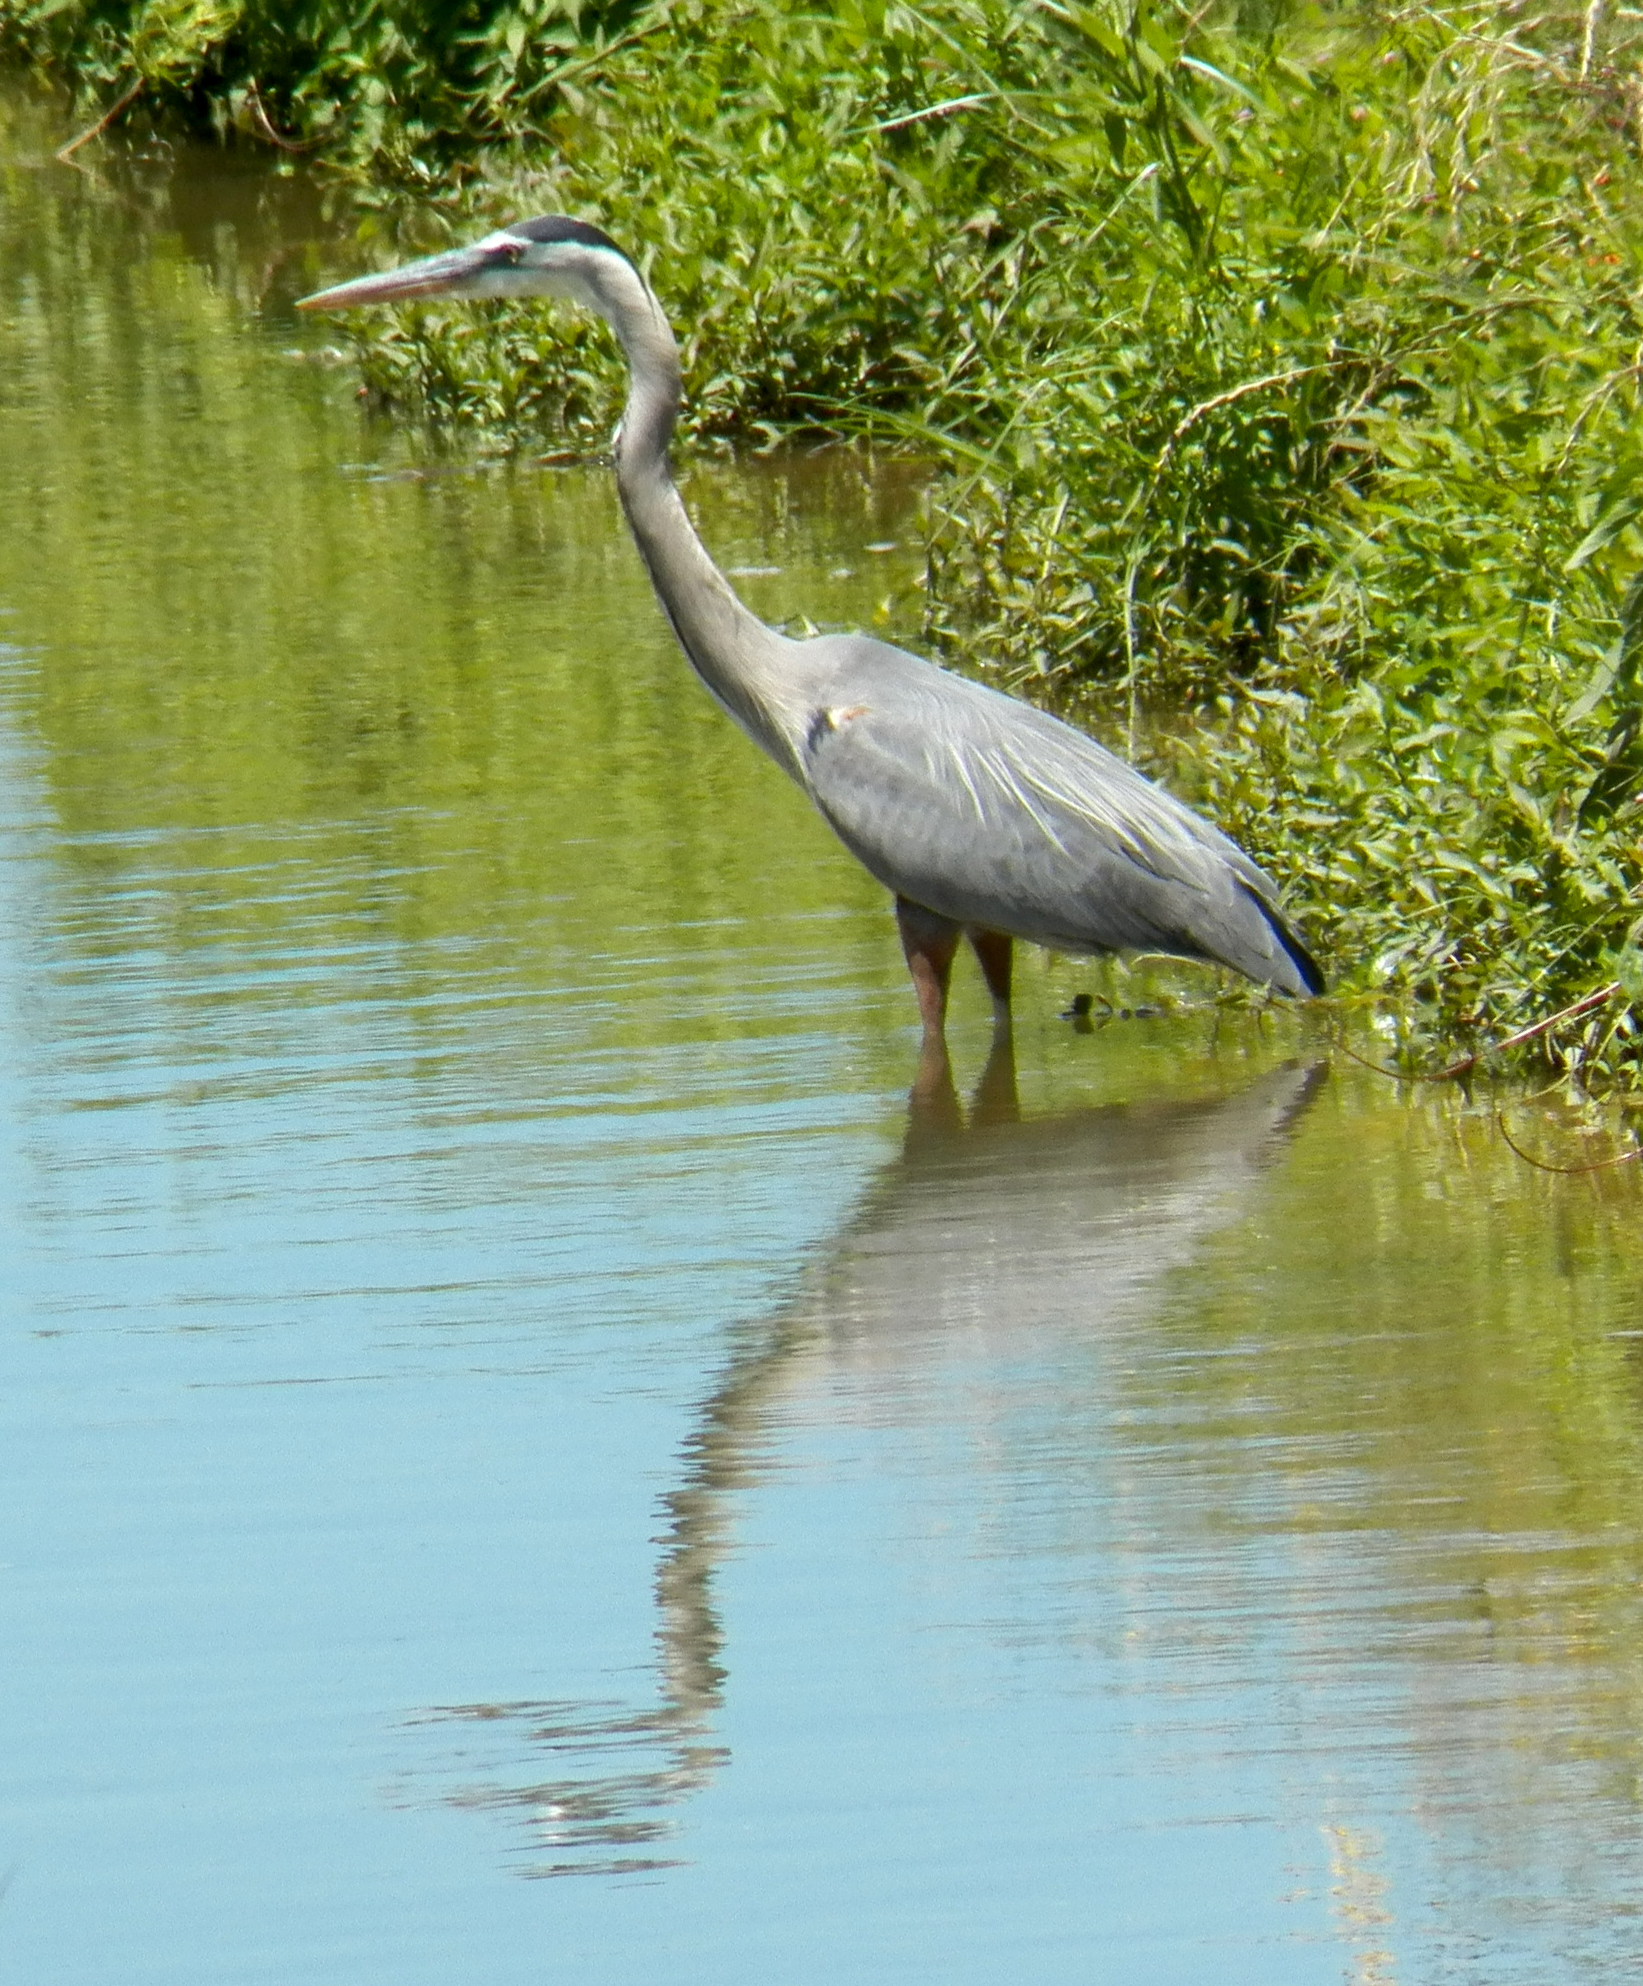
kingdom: Animalia
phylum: Chordata
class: Aves
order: Pelecaniformes
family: Ardeidae
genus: Ardea
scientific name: Ardea herodias
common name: Great blue heron
